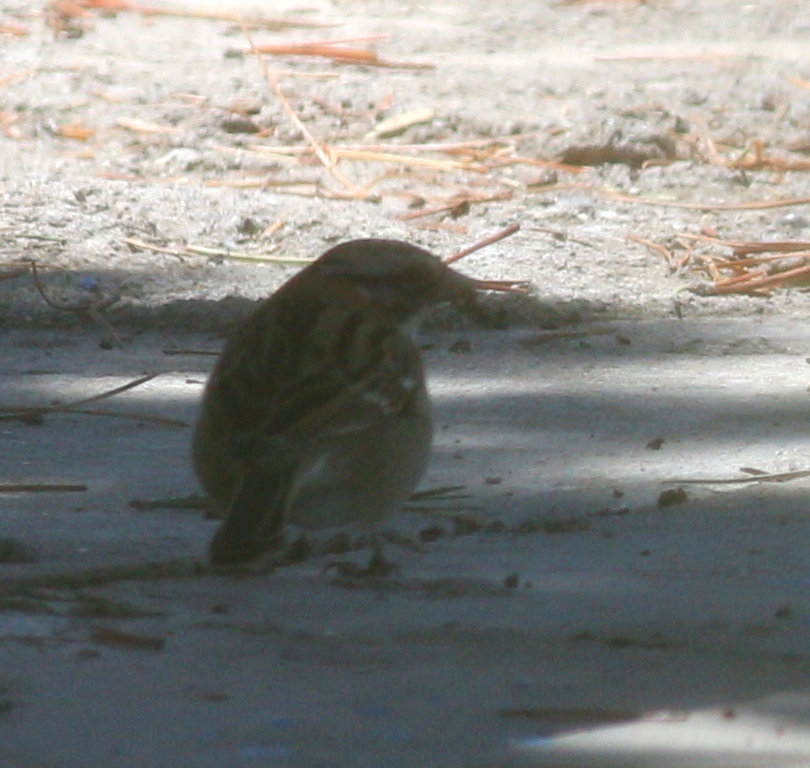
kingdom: Animalia
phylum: Chordata
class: Aves
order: Passeriformes
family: Passerellidae
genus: Zonotrichia
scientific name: Zonotrichia capensis
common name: Rufous-collared sparrow
